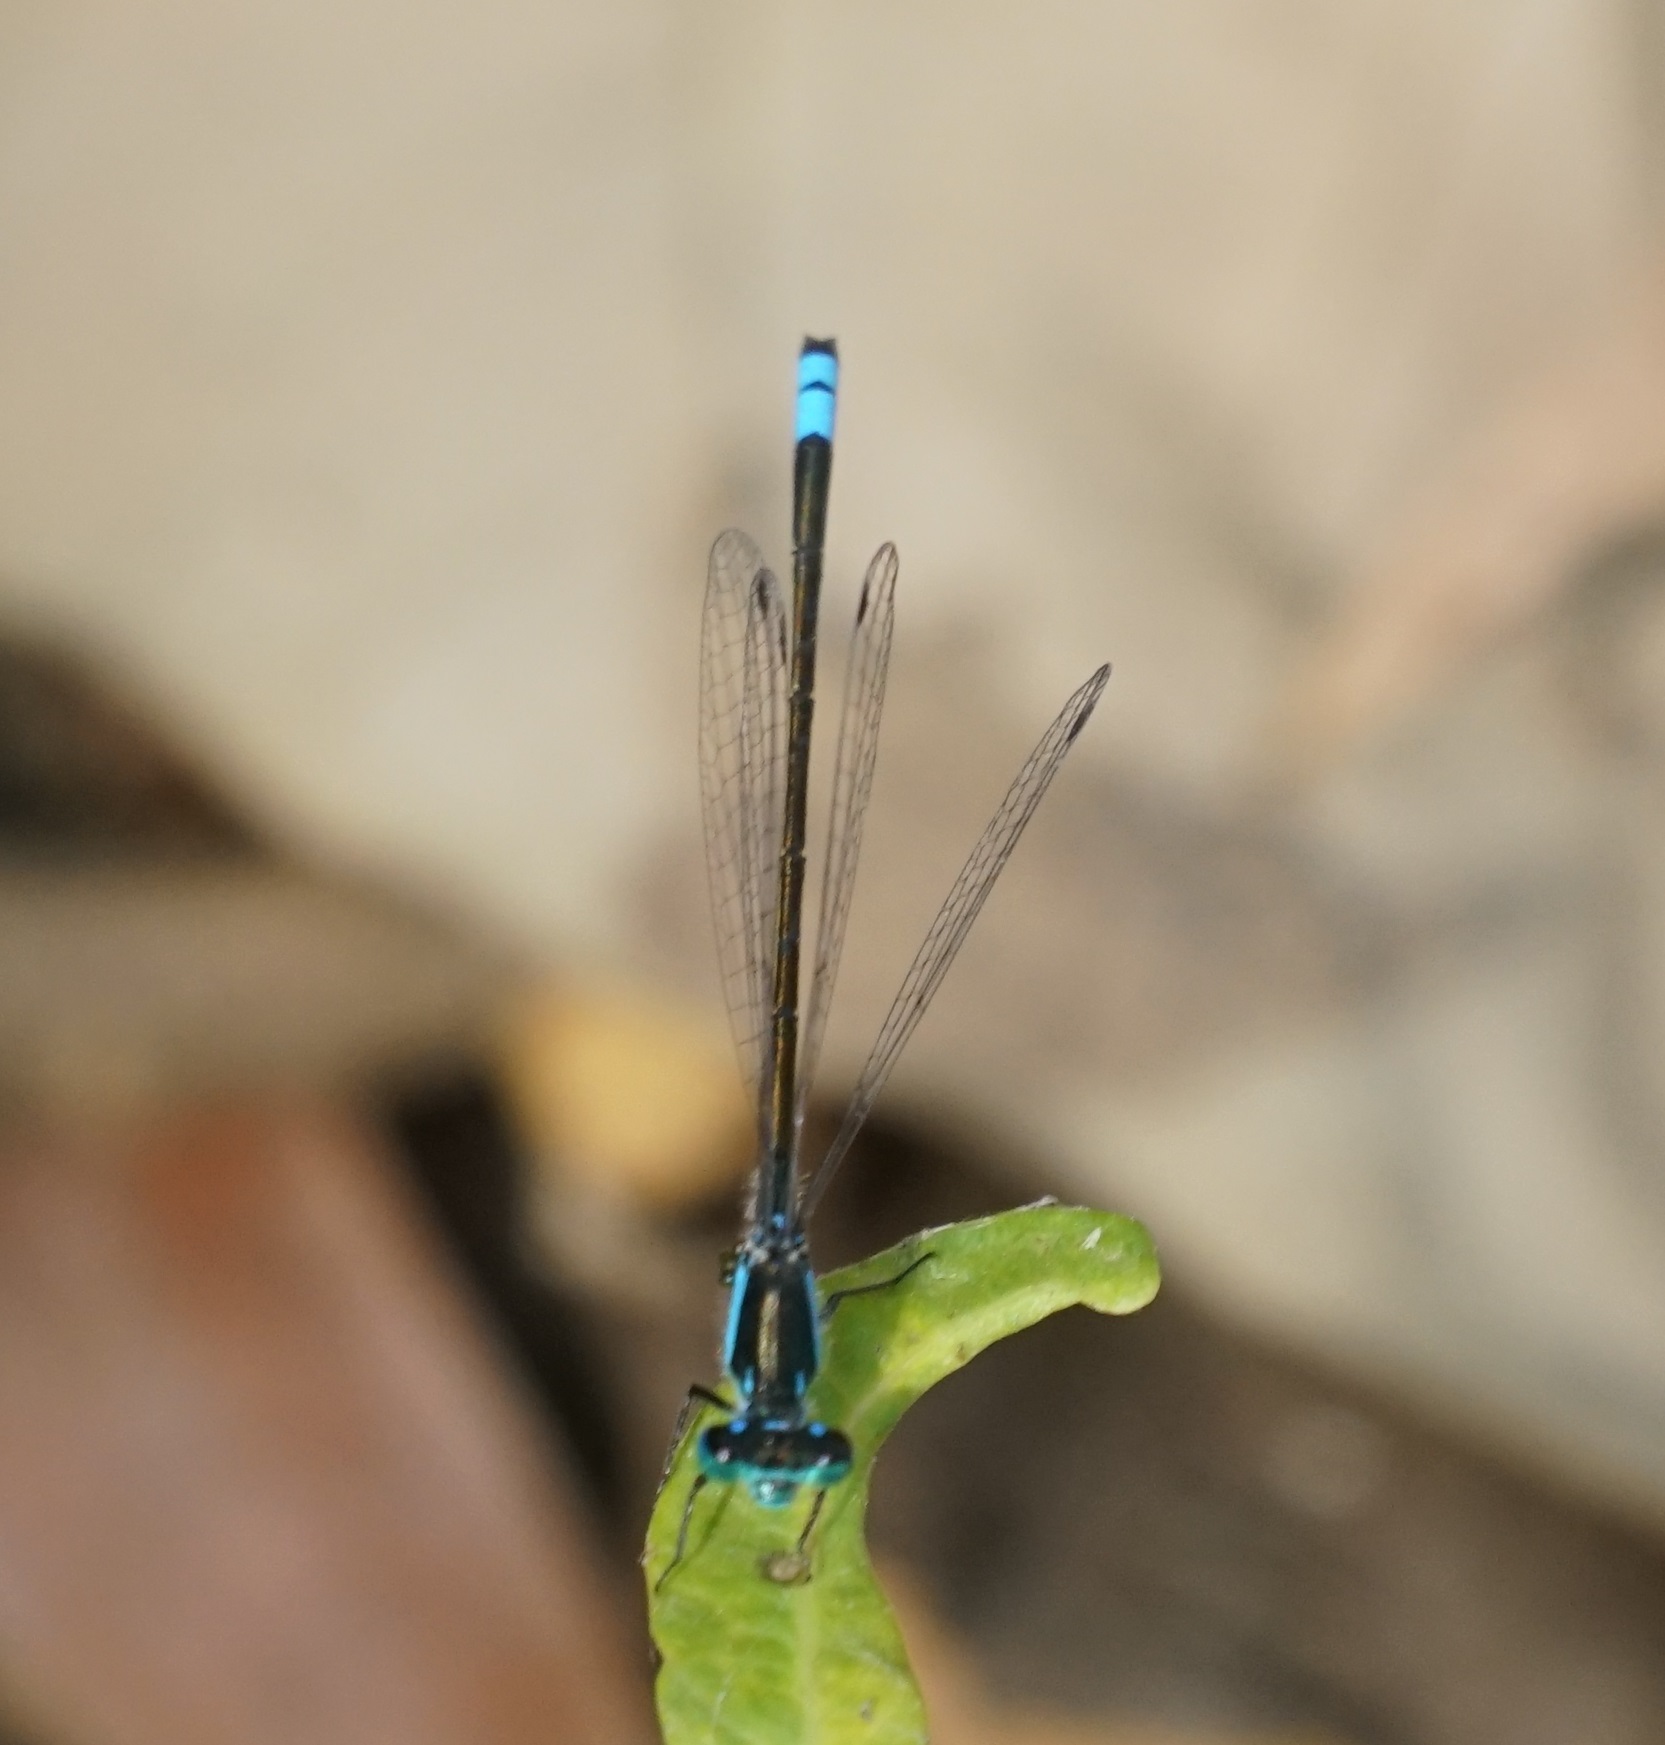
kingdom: Animalia
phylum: Arthropoda
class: Insecta
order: Odonata
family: Coenagrionidae
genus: Ischnura
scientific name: Ischnura heterosticta
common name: Common bluetail
